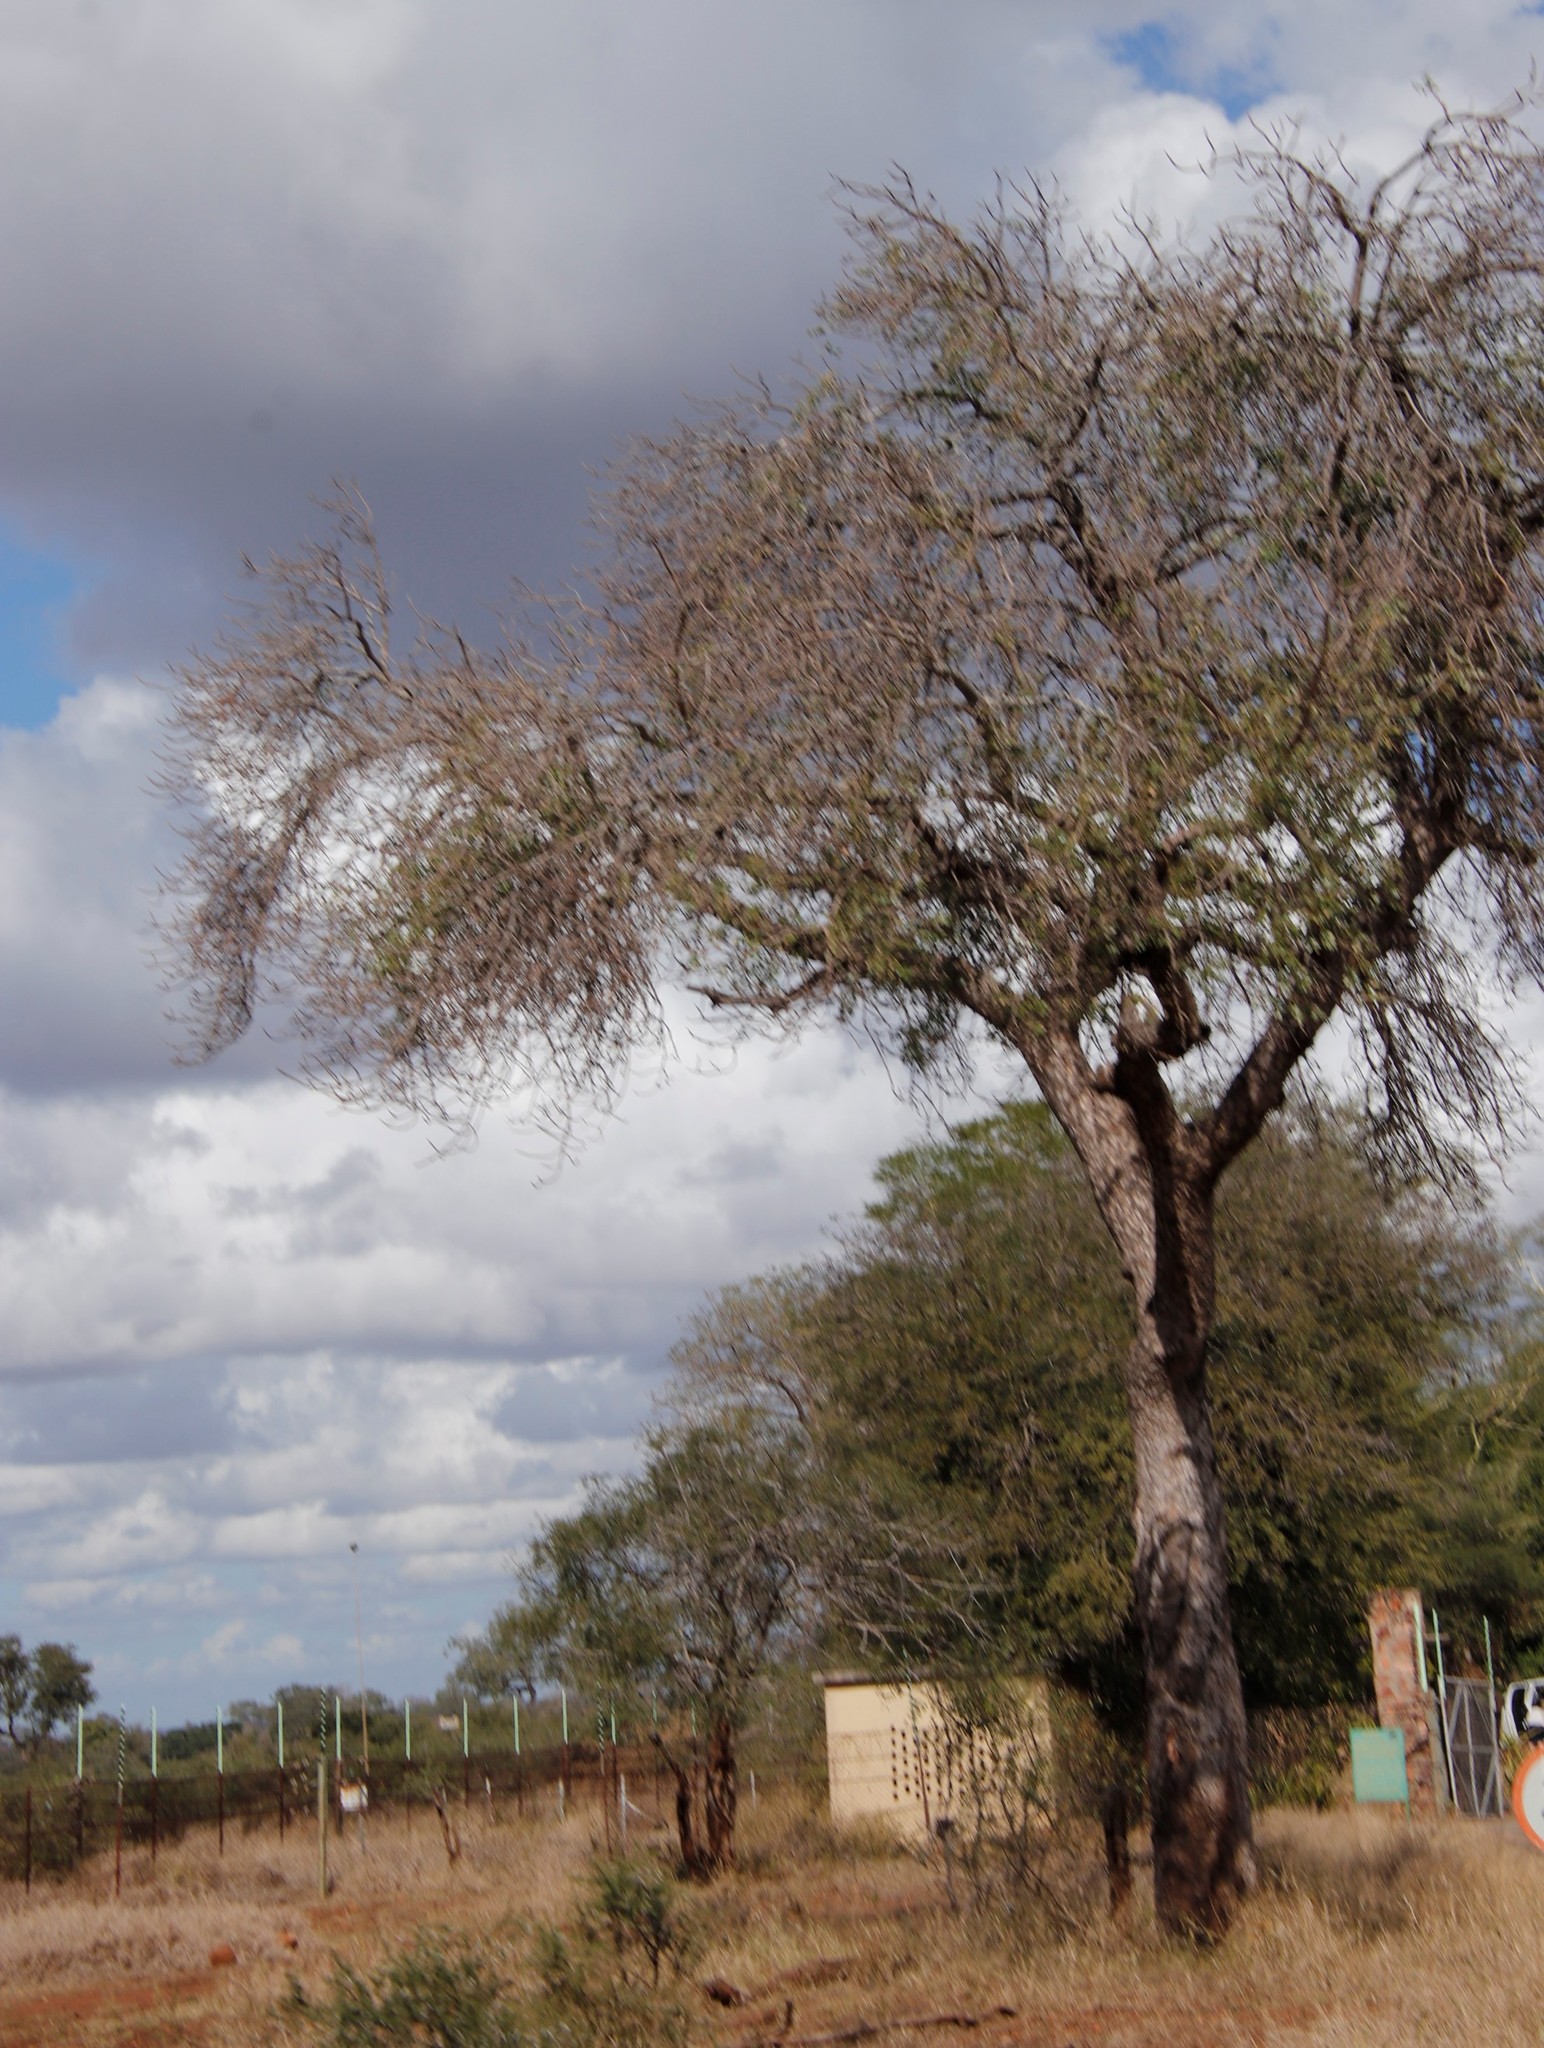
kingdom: Plantae
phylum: Tracheophyta
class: Magnoliopsida
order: Sapindales
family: Anacardiaceae
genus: Sclerocarya
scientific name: Sclerocarya birrea
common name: Marula
